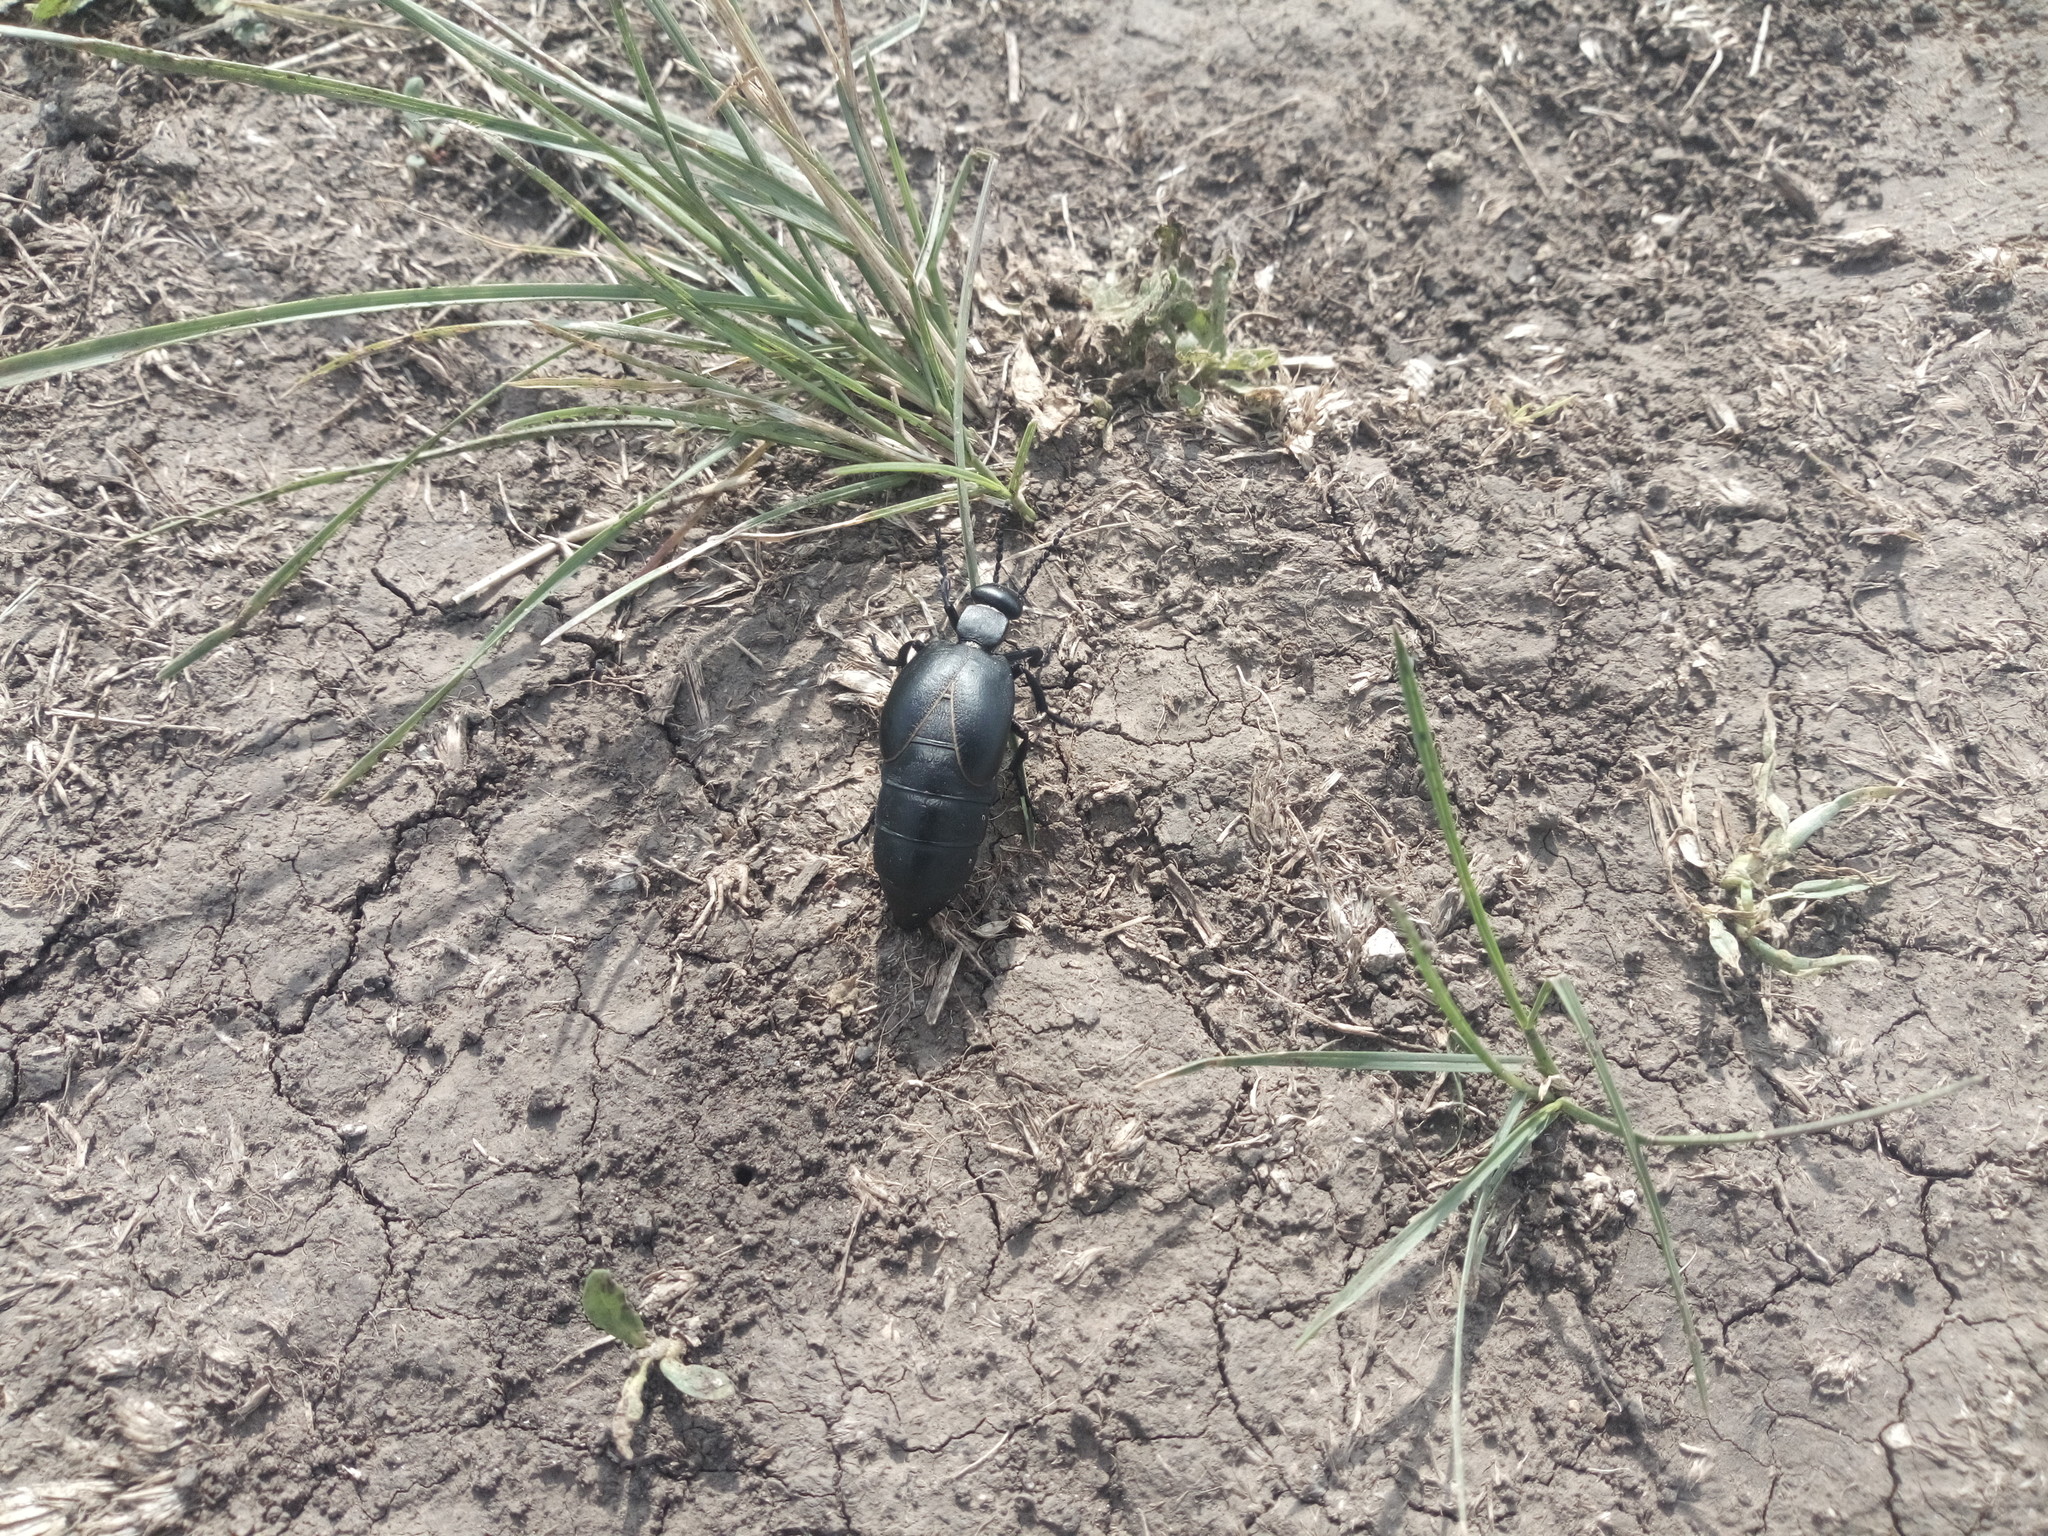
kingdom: Animalia
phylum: Arthropoda
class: Insecta
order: Coleoptera
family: Meloidae
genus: Meloe
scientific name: Meloe hungarus
